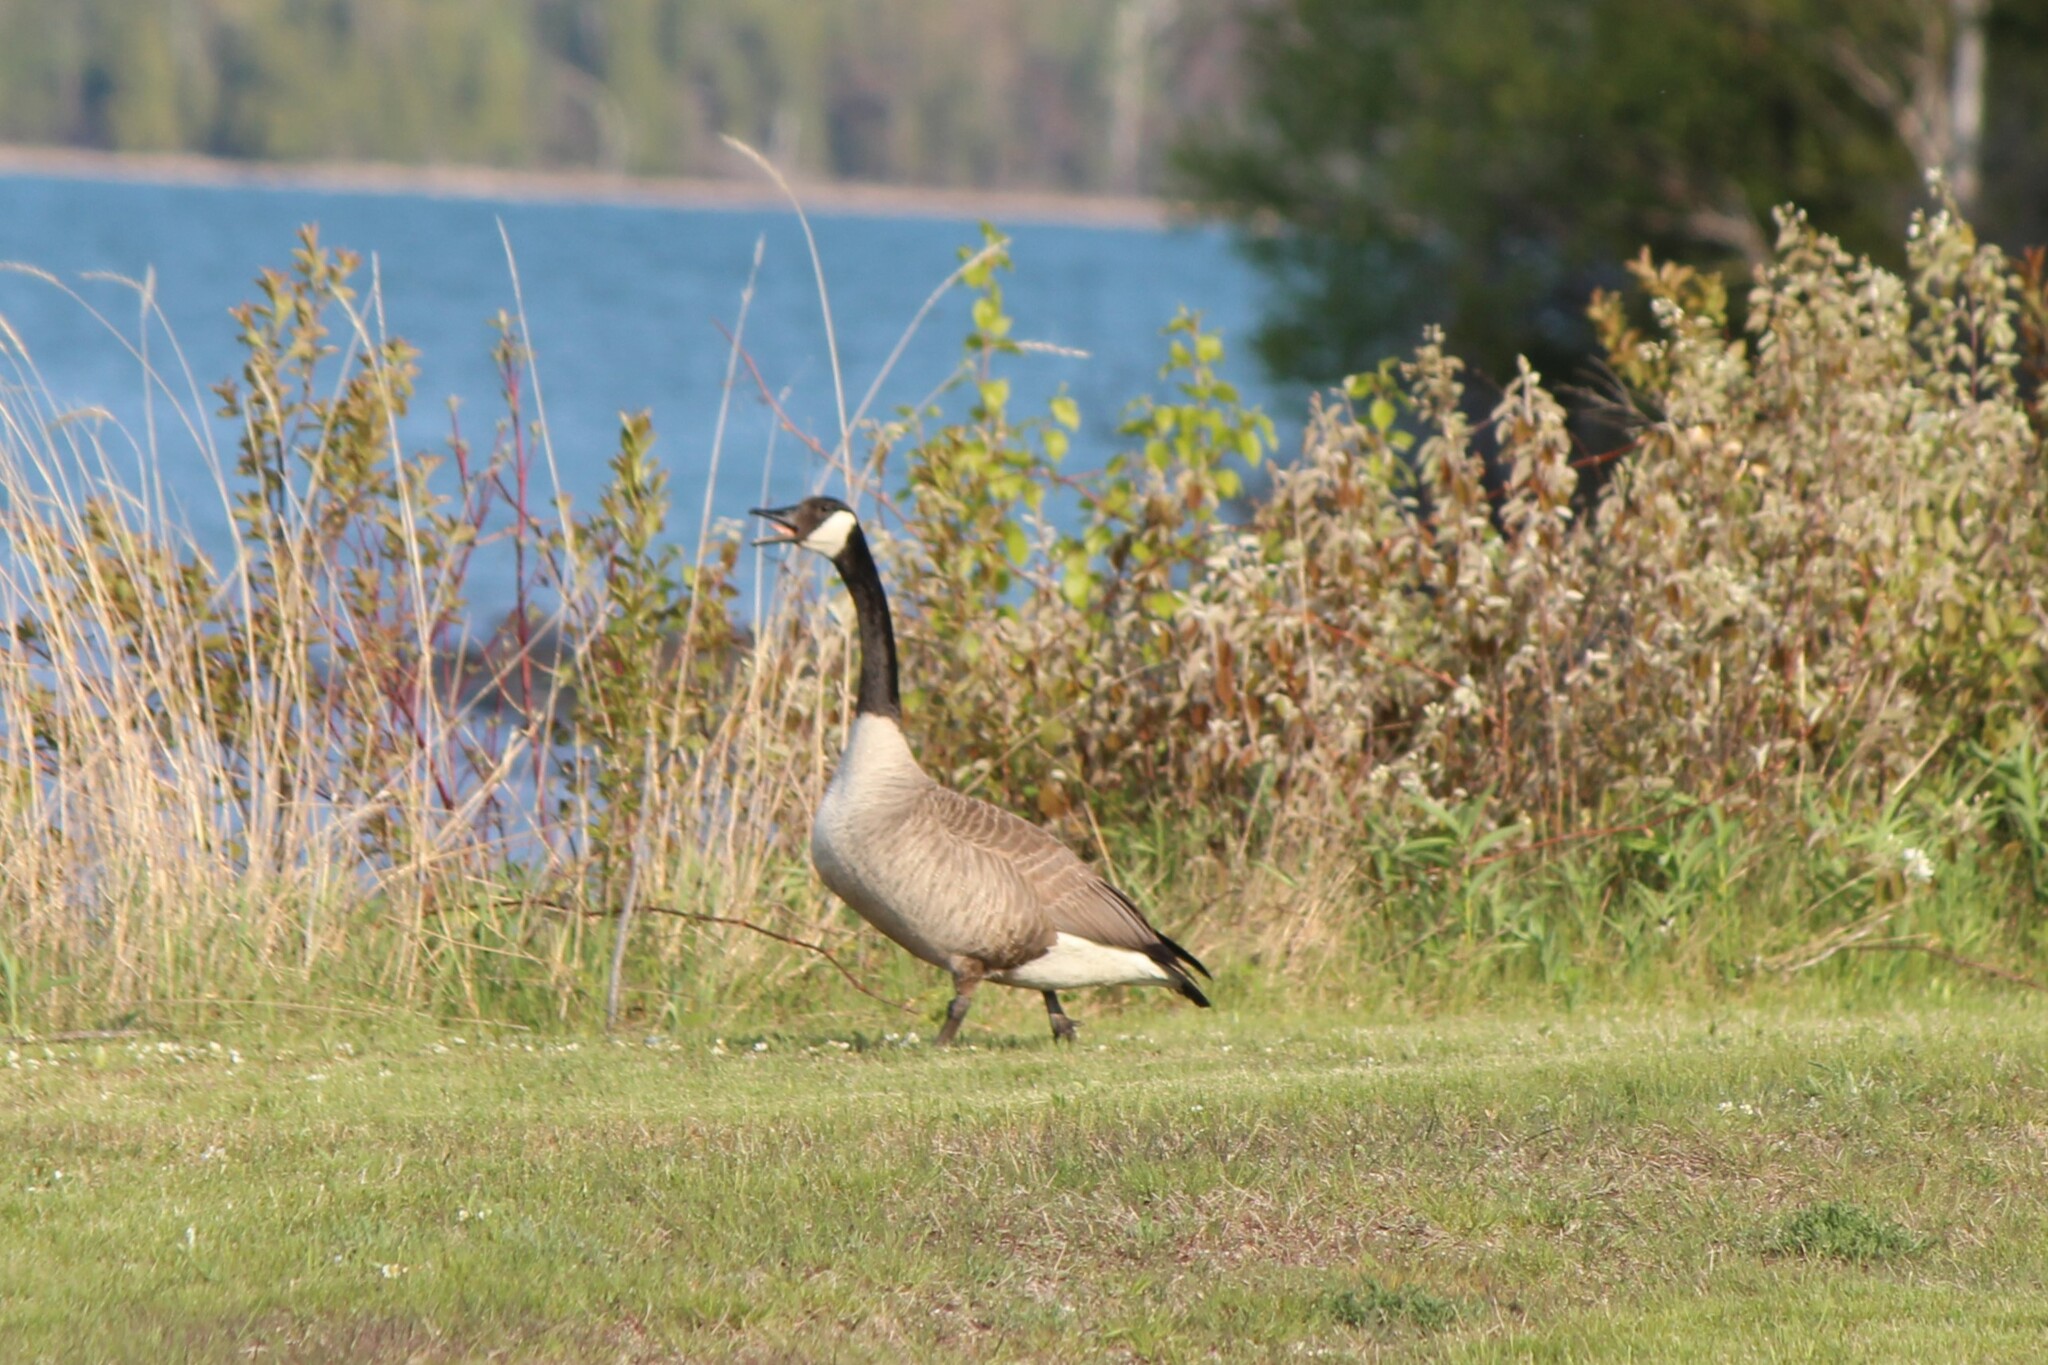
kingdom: Animalia
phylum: Chordata
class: Aves
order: Anseriformes
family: Anatidae
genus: Branta
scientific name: Branta canadensis
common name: Canada goose
